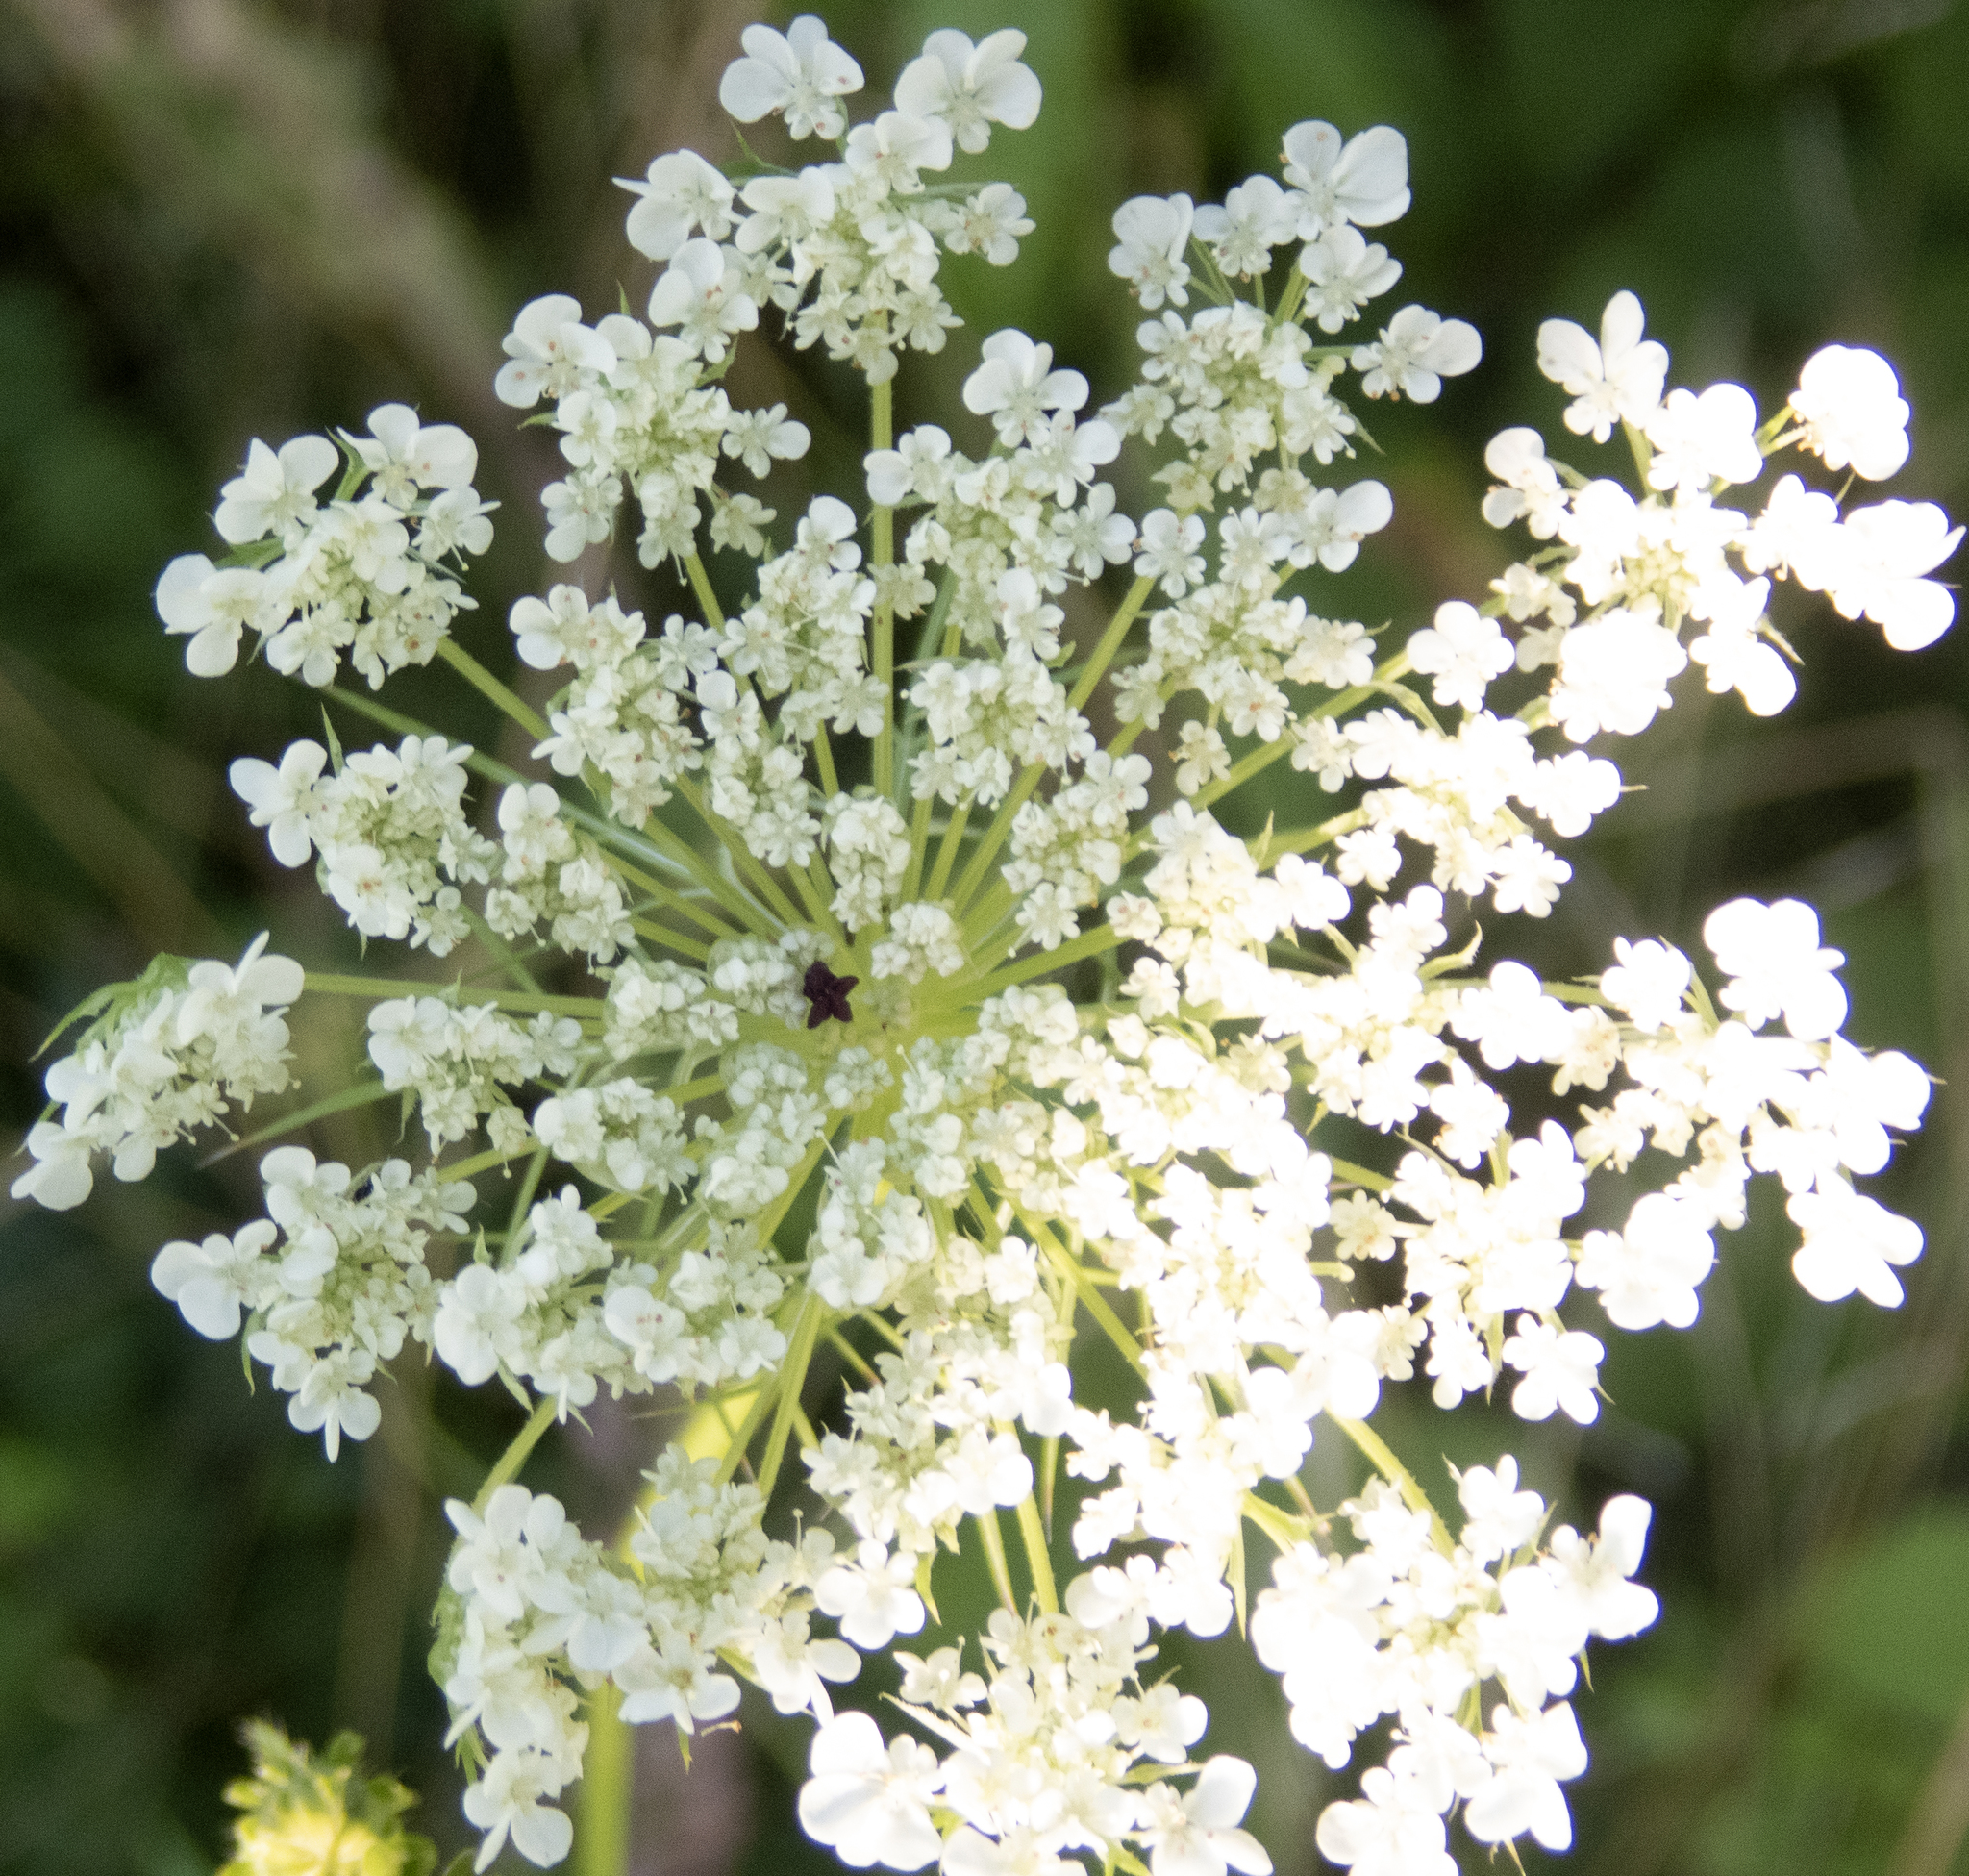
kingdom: Plantae
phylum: Tracheophyta
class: Magnoliopsida
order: Apiales
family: Apiaceae
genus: Daucus
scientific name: Daucus carota
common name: Wild carrot
